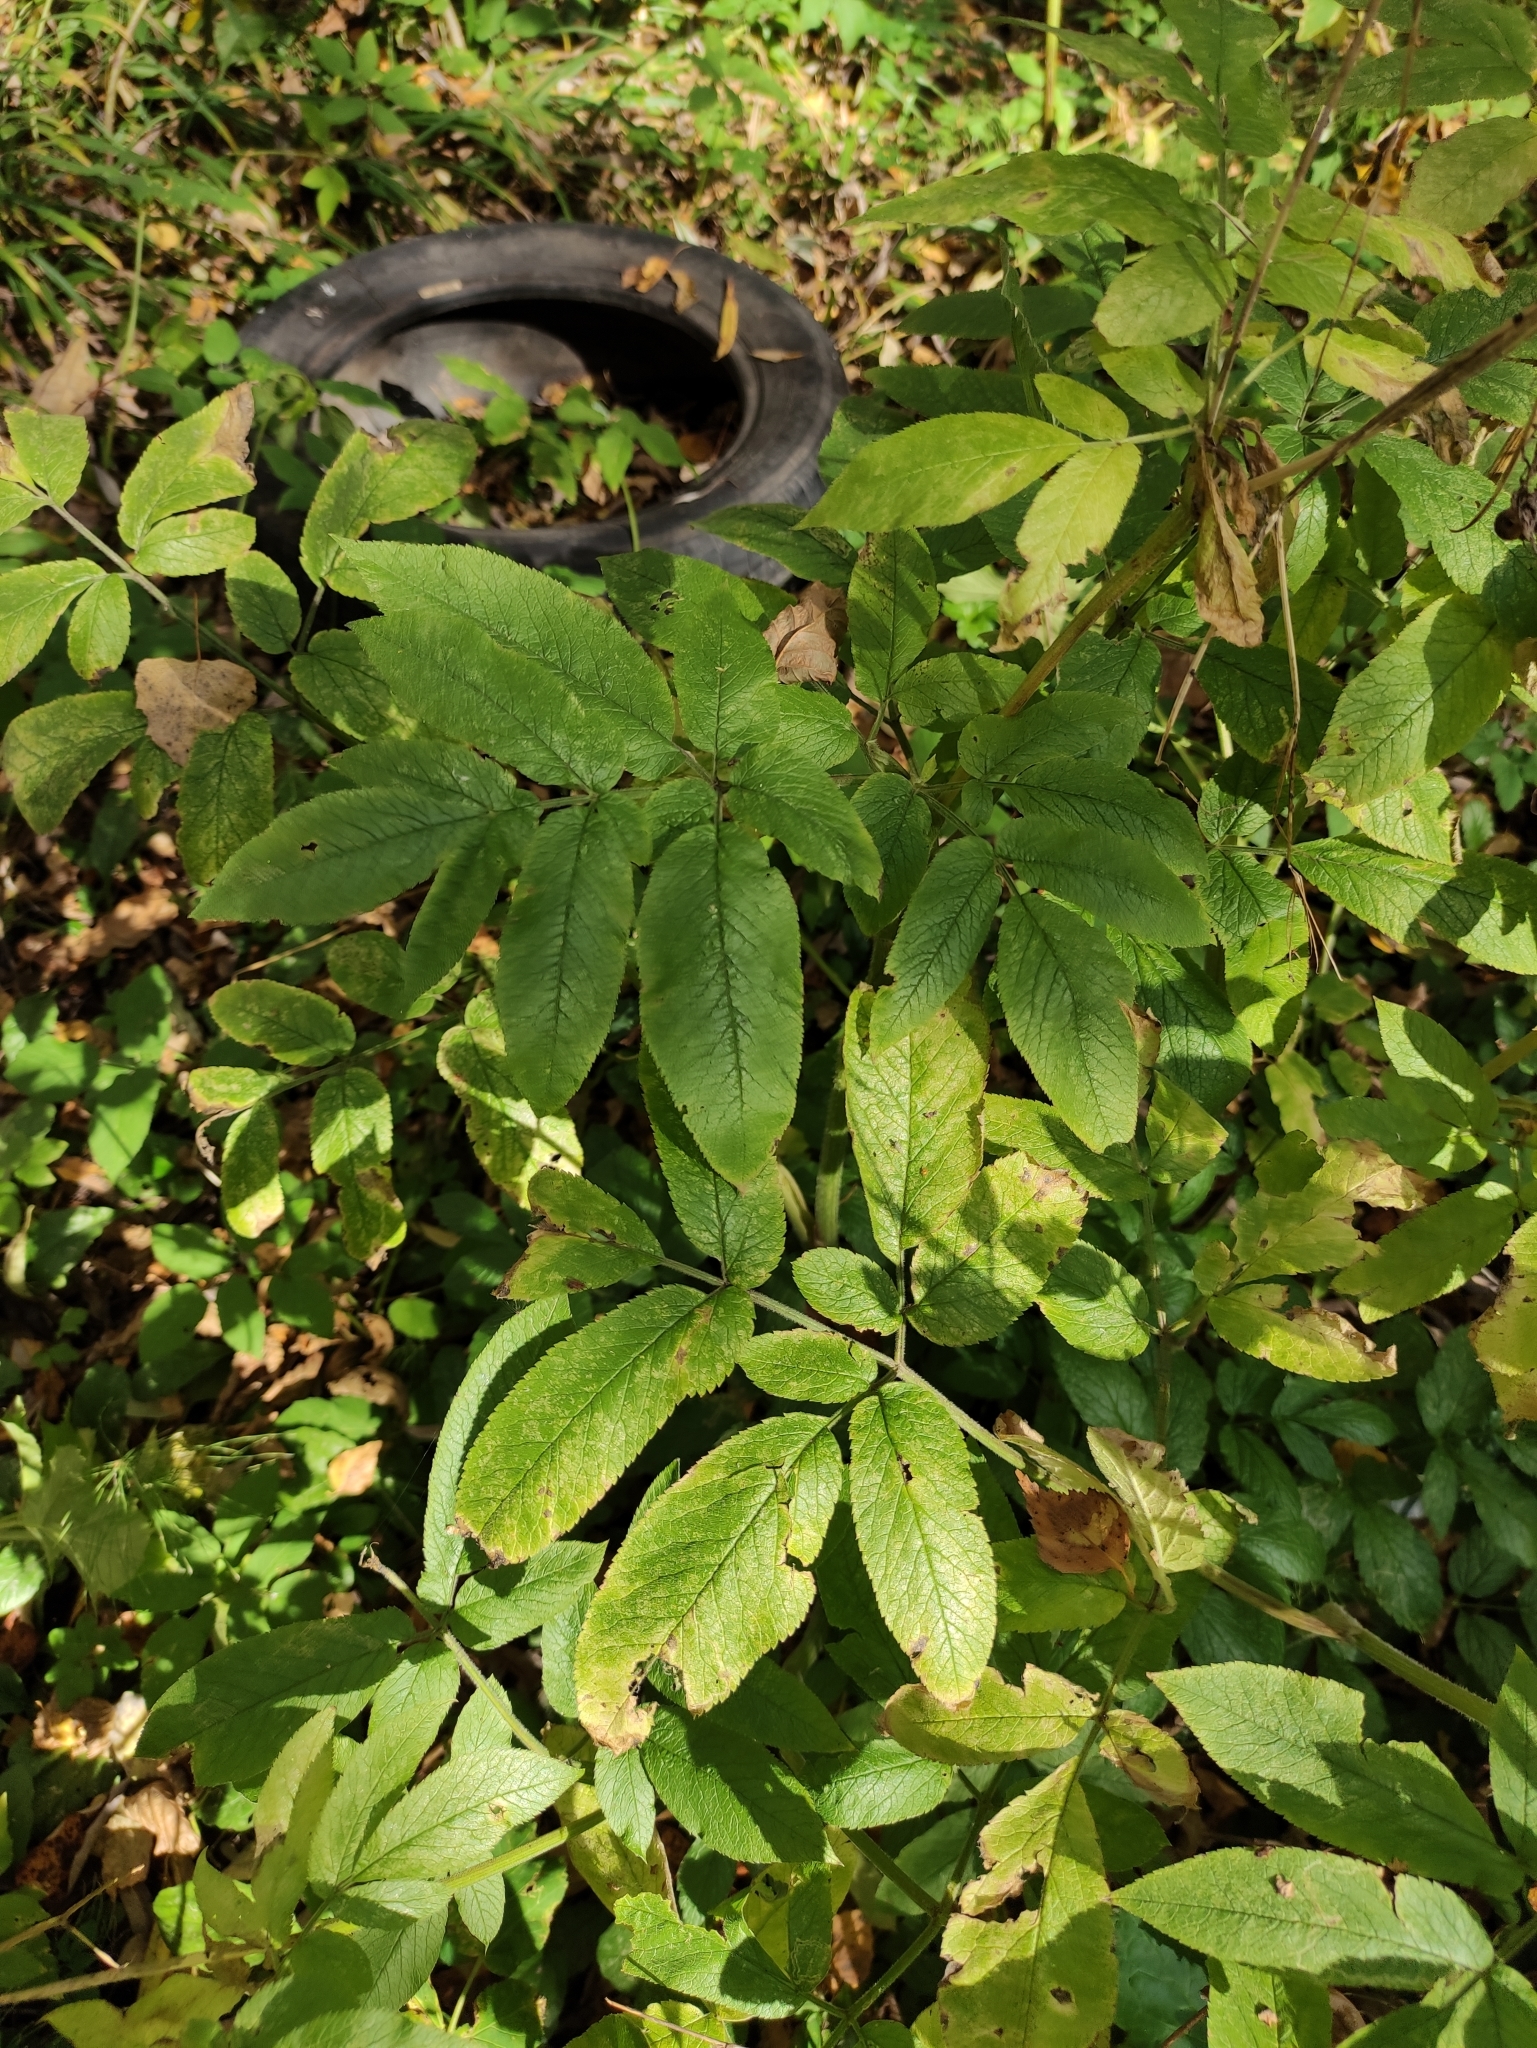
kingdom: Plantae
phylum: Tracheophyta
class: Magnoliopsida
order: Apiales
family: Apiaceae
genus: Chaerophyllum
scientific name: Chaerophyllum aromaticum
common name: Broadleaf chervil
